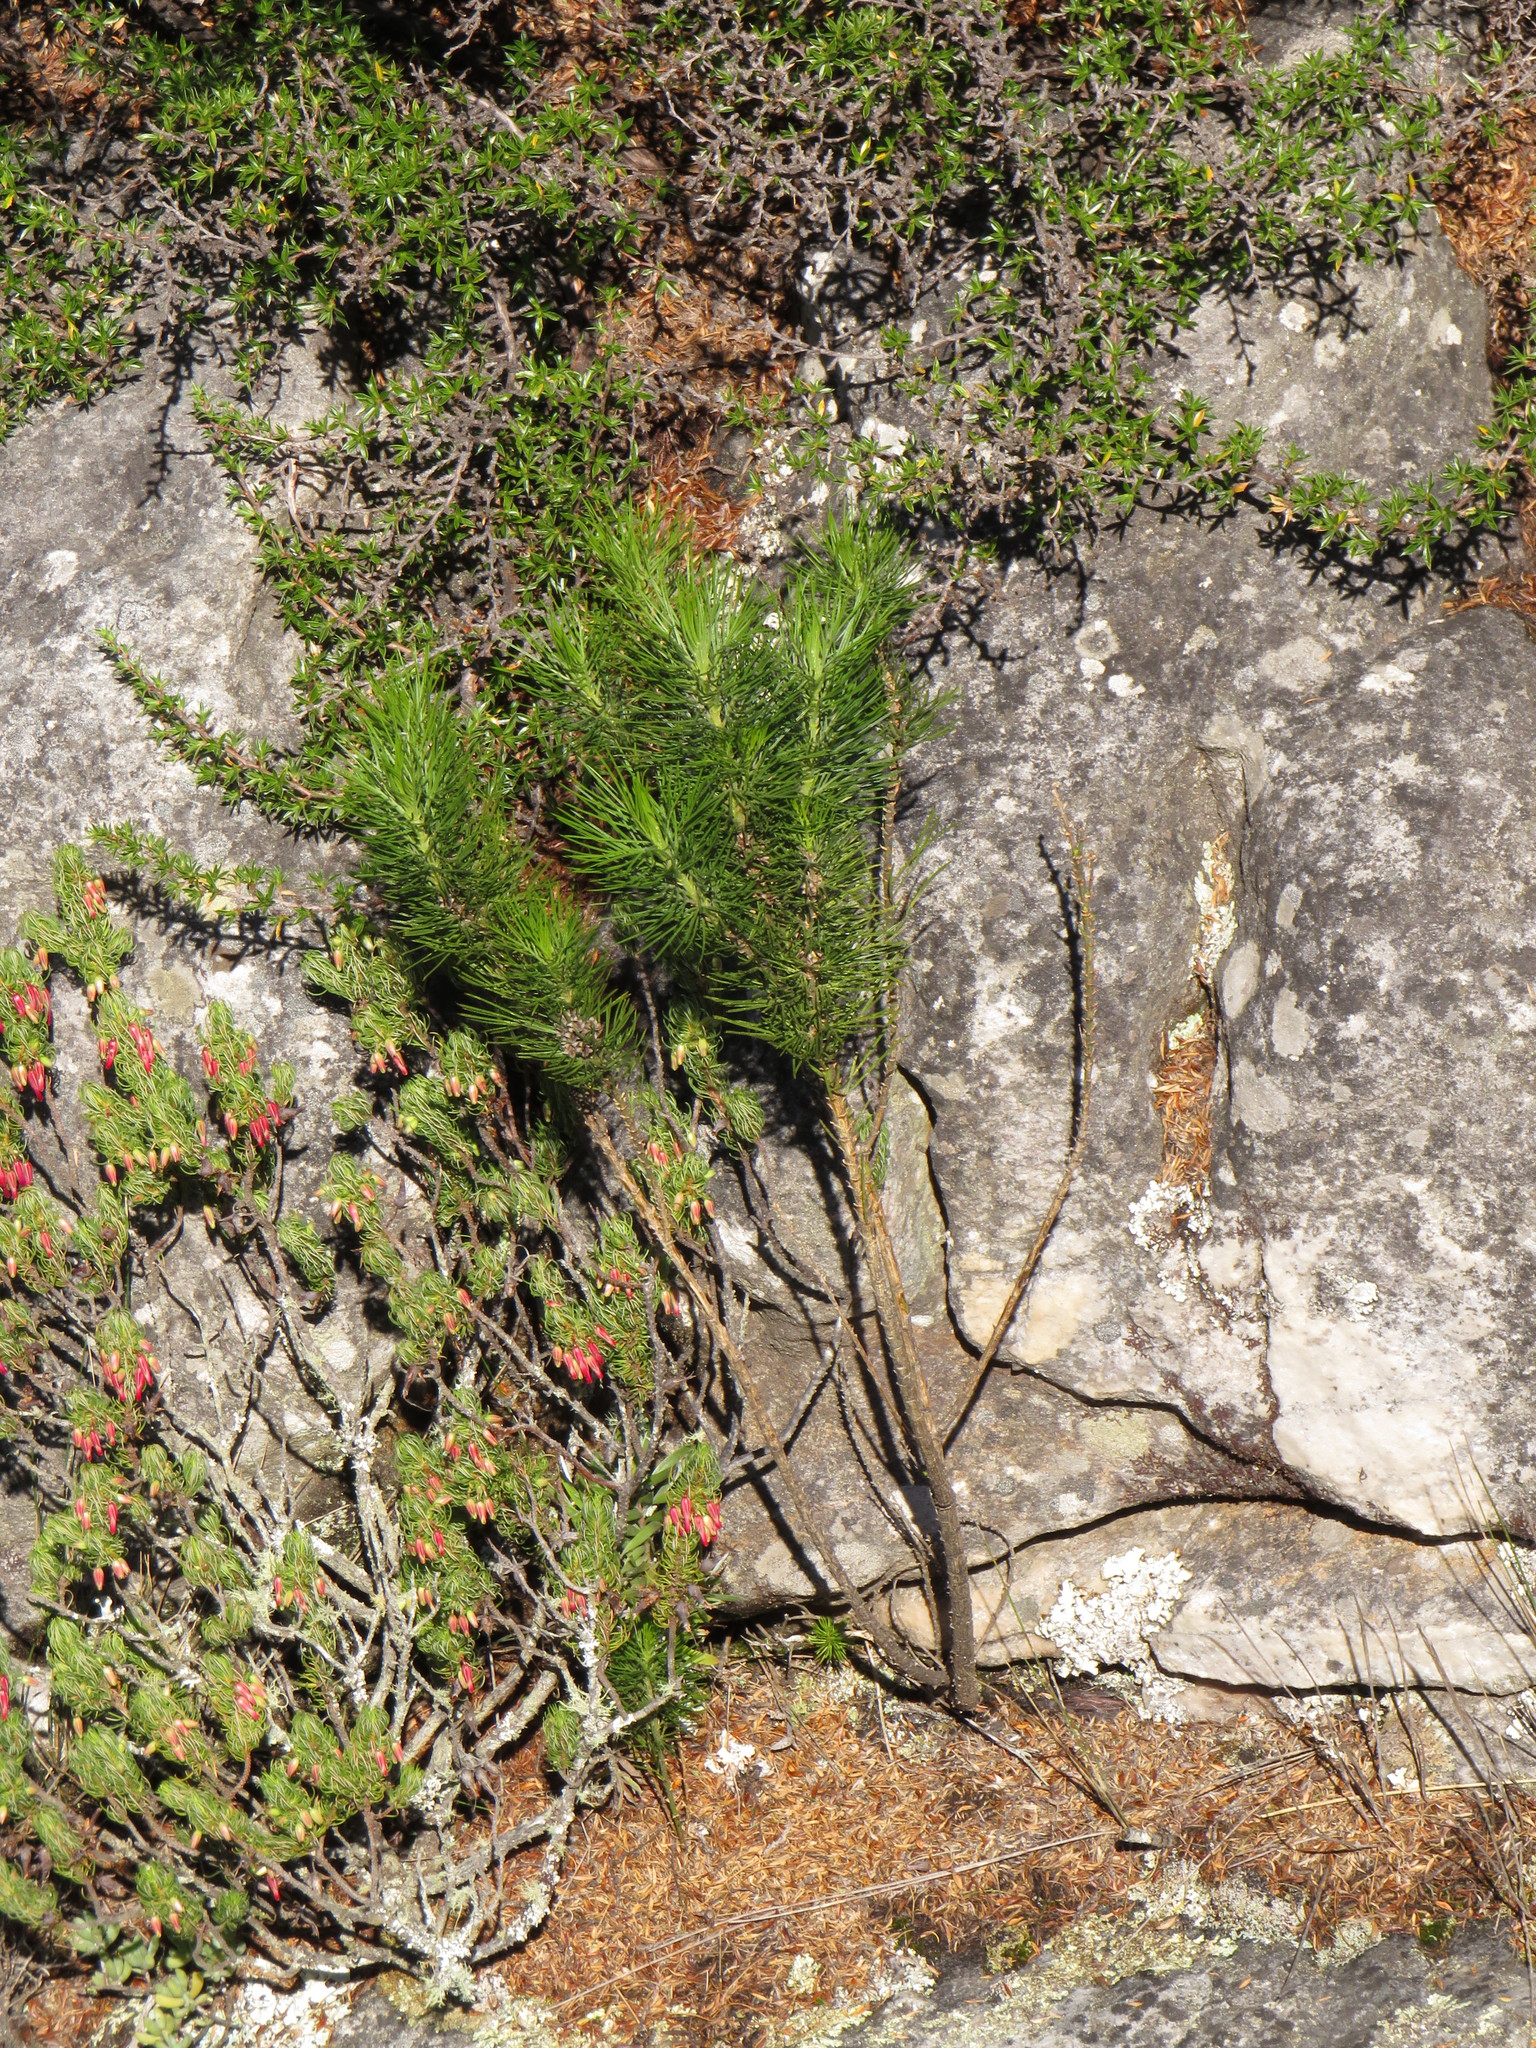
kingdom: Plantae
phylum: Tracheophyta
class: Magnoliopsida
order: Fabales
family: Fabaceae
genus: Psoralea
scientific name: Psoralea pinnata
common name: African scurfpea
